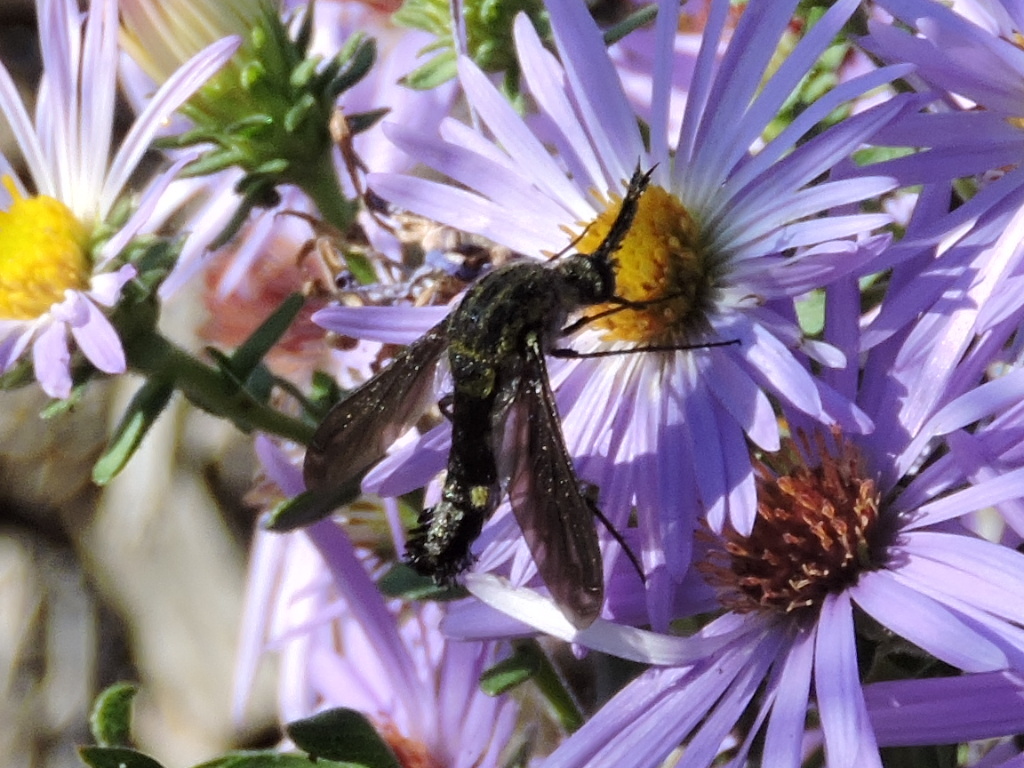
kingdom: Animalia
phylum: Arthropoda
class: Insecta
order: Diptera
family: Bombyliidae
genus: Lepidophora
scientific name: Lepidophora lepidocera
